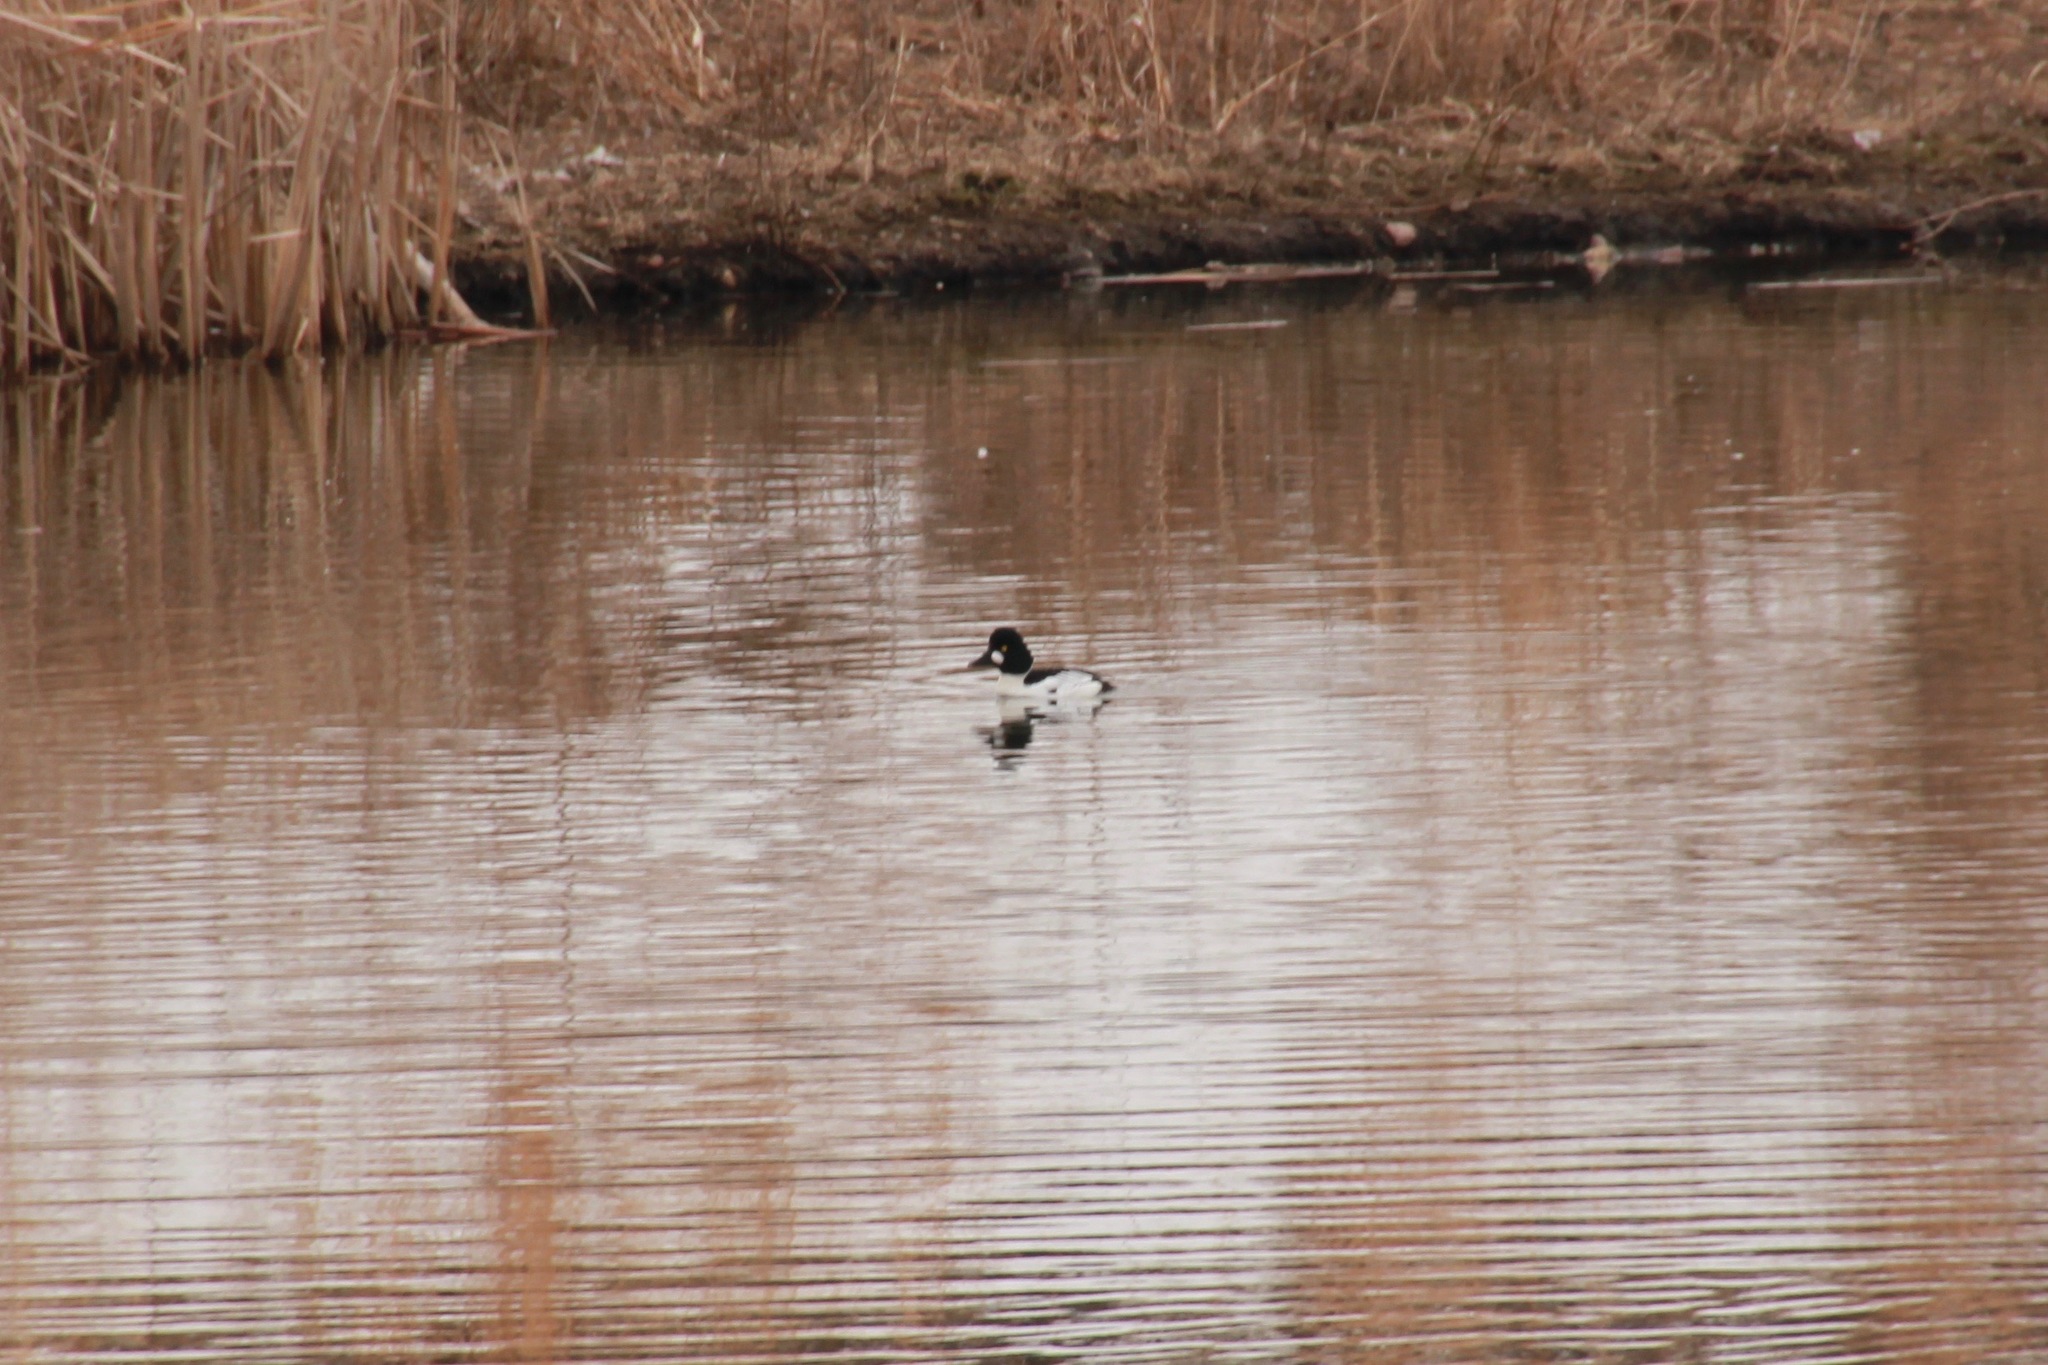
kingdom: Animalia
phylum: Chordata
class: Aves
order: Anseriformes
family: Anatidae
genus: Bucephala
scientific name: Bucephala clangula
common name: Common goldeneye
